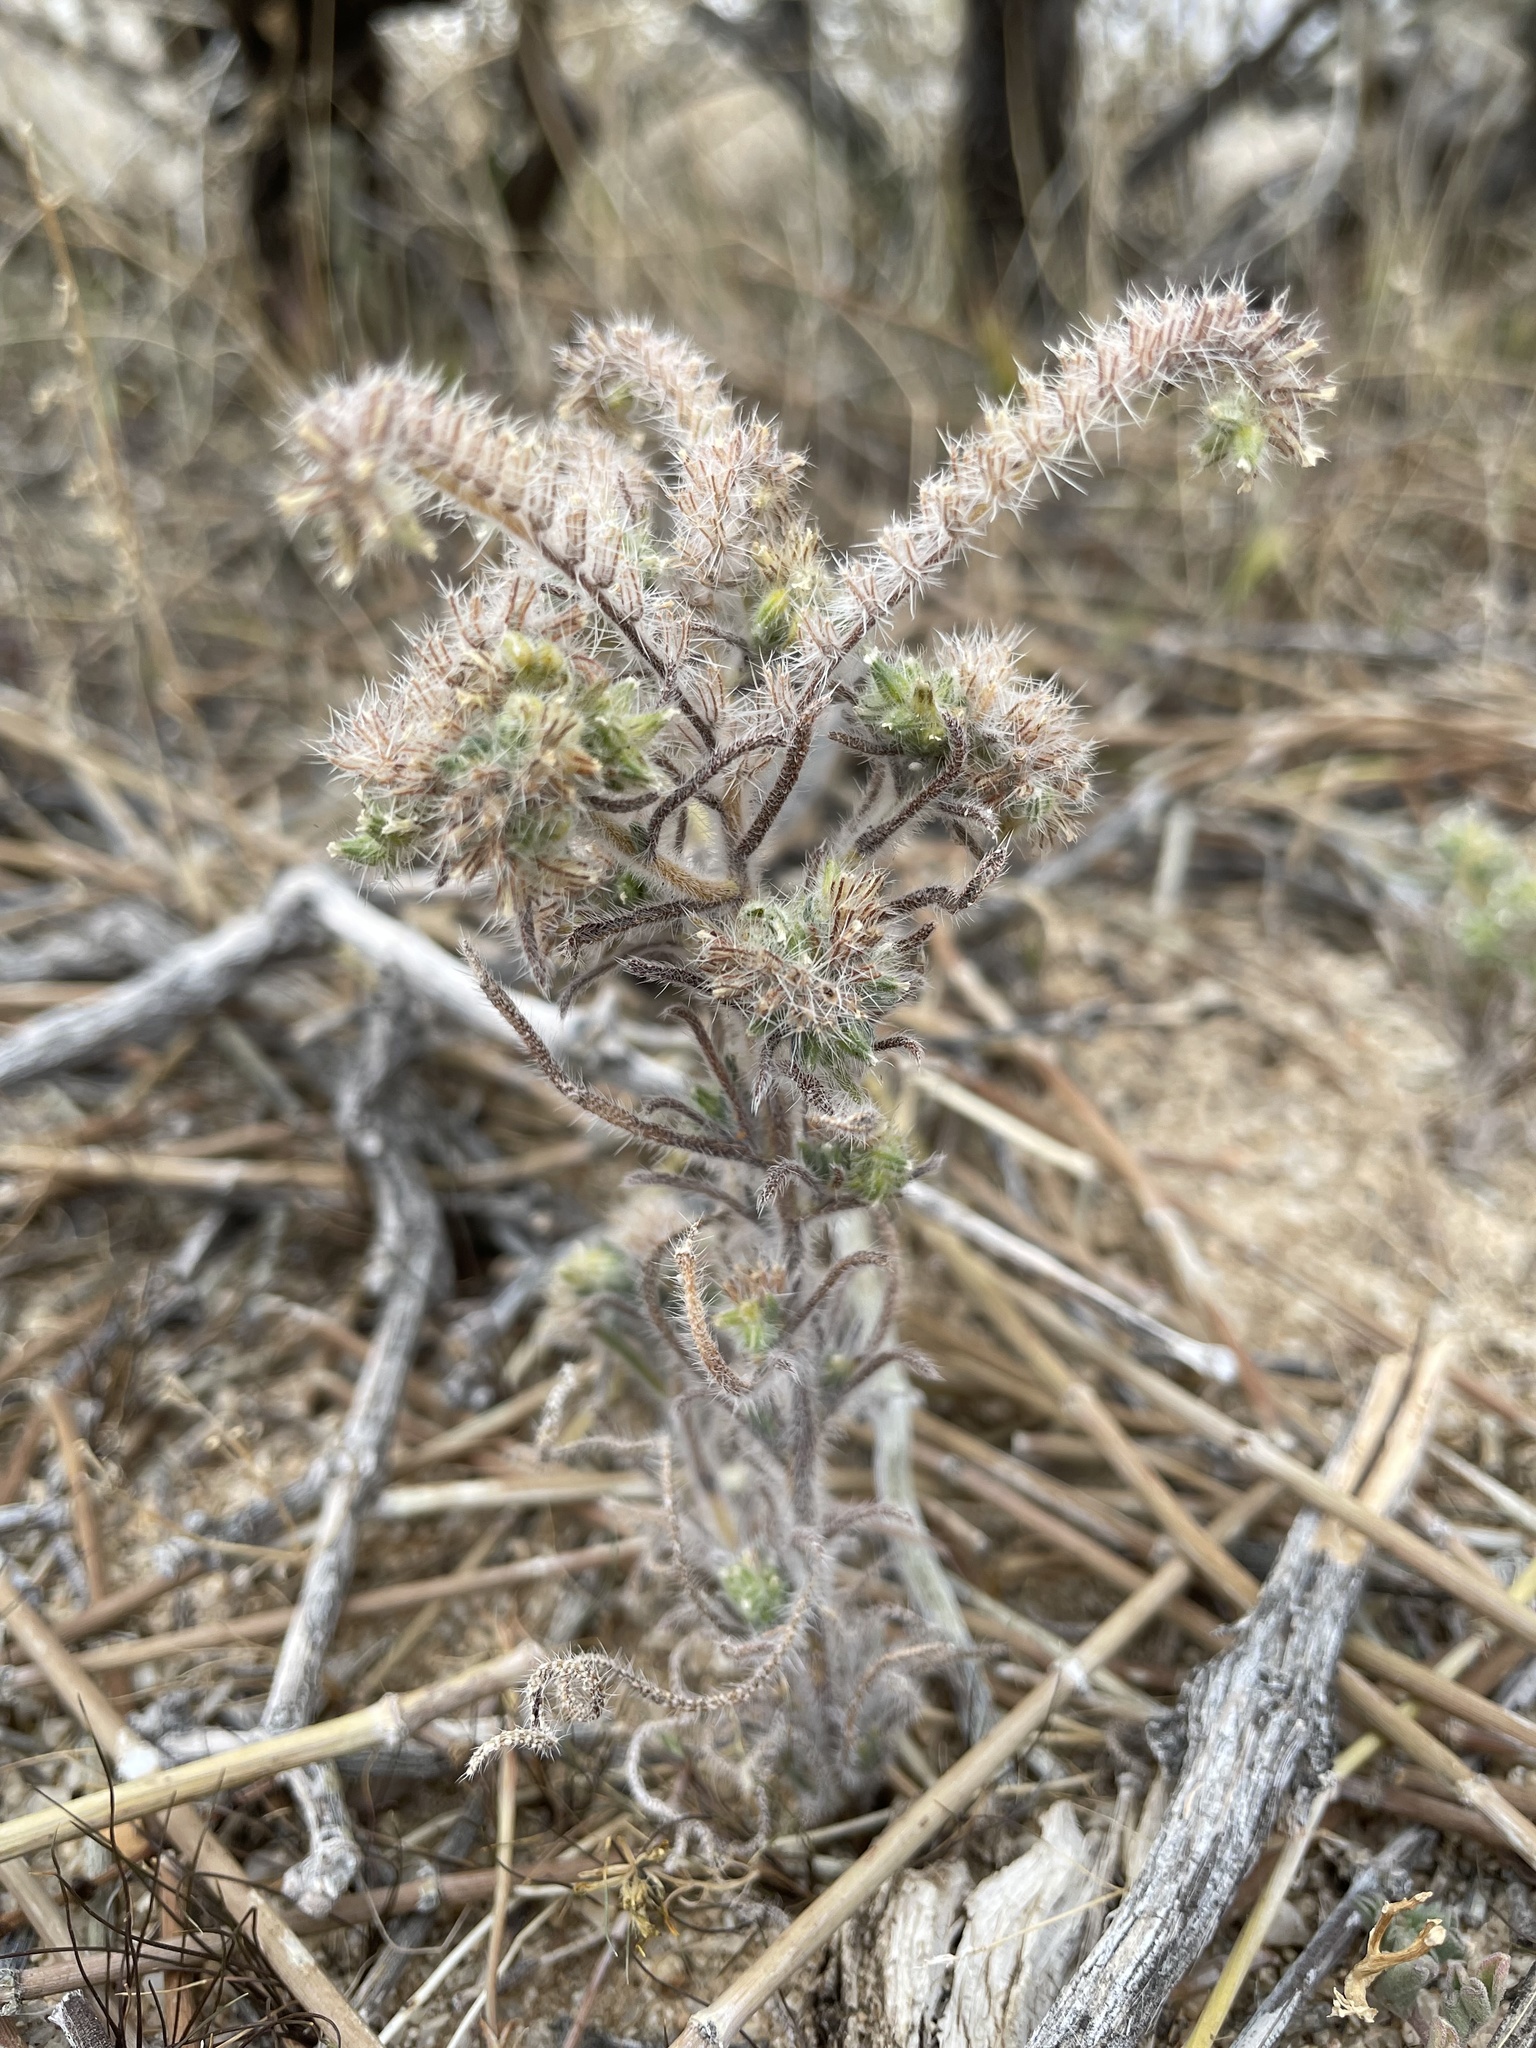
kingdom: Plantae
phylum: Tracheophyta
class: Magnoliopsida
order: Boraginales
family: Boraginaceae
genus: Johnstonella
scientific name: Johnstonella angustifolia
